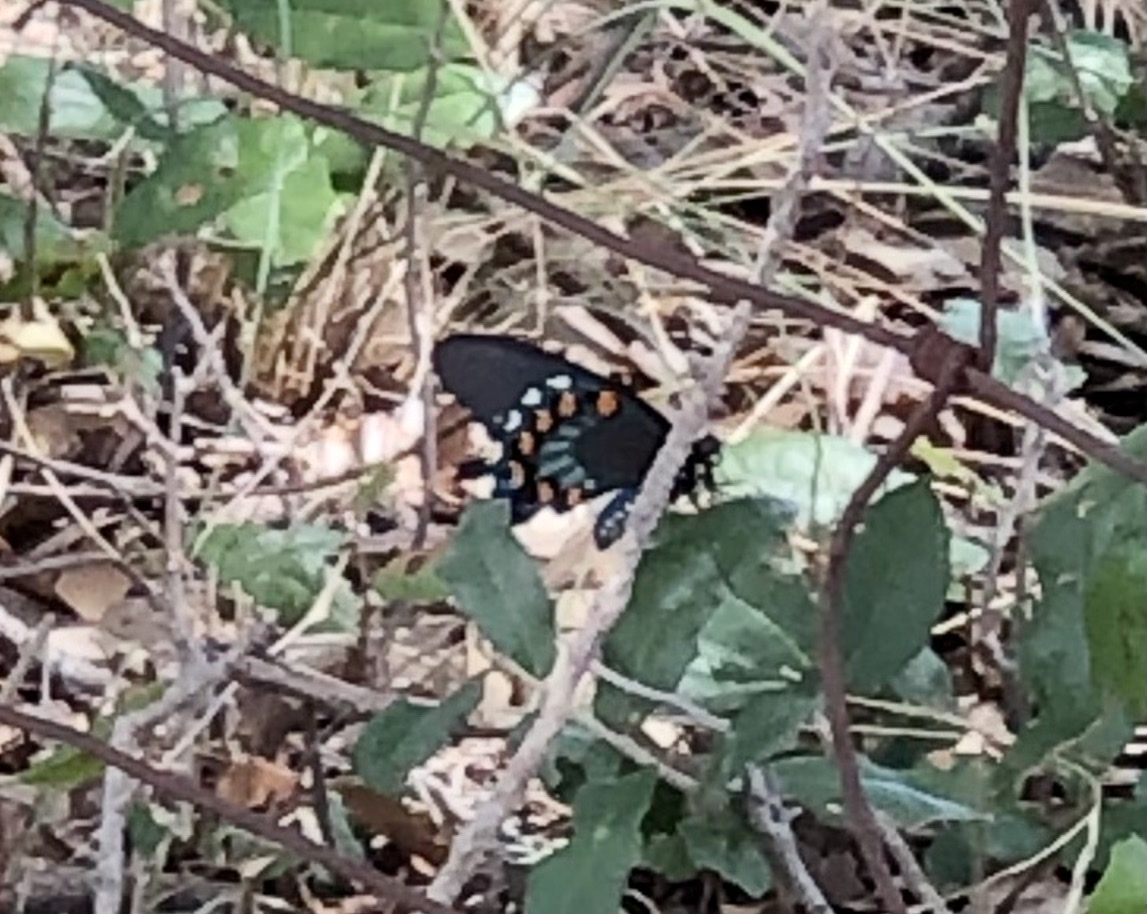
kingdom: Animalia
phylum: Arthropoda
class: Insecta
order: Lepidoptera
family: Papilionidae
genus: Battus
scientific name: Battus philenor
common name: Pipevine swallowtail
